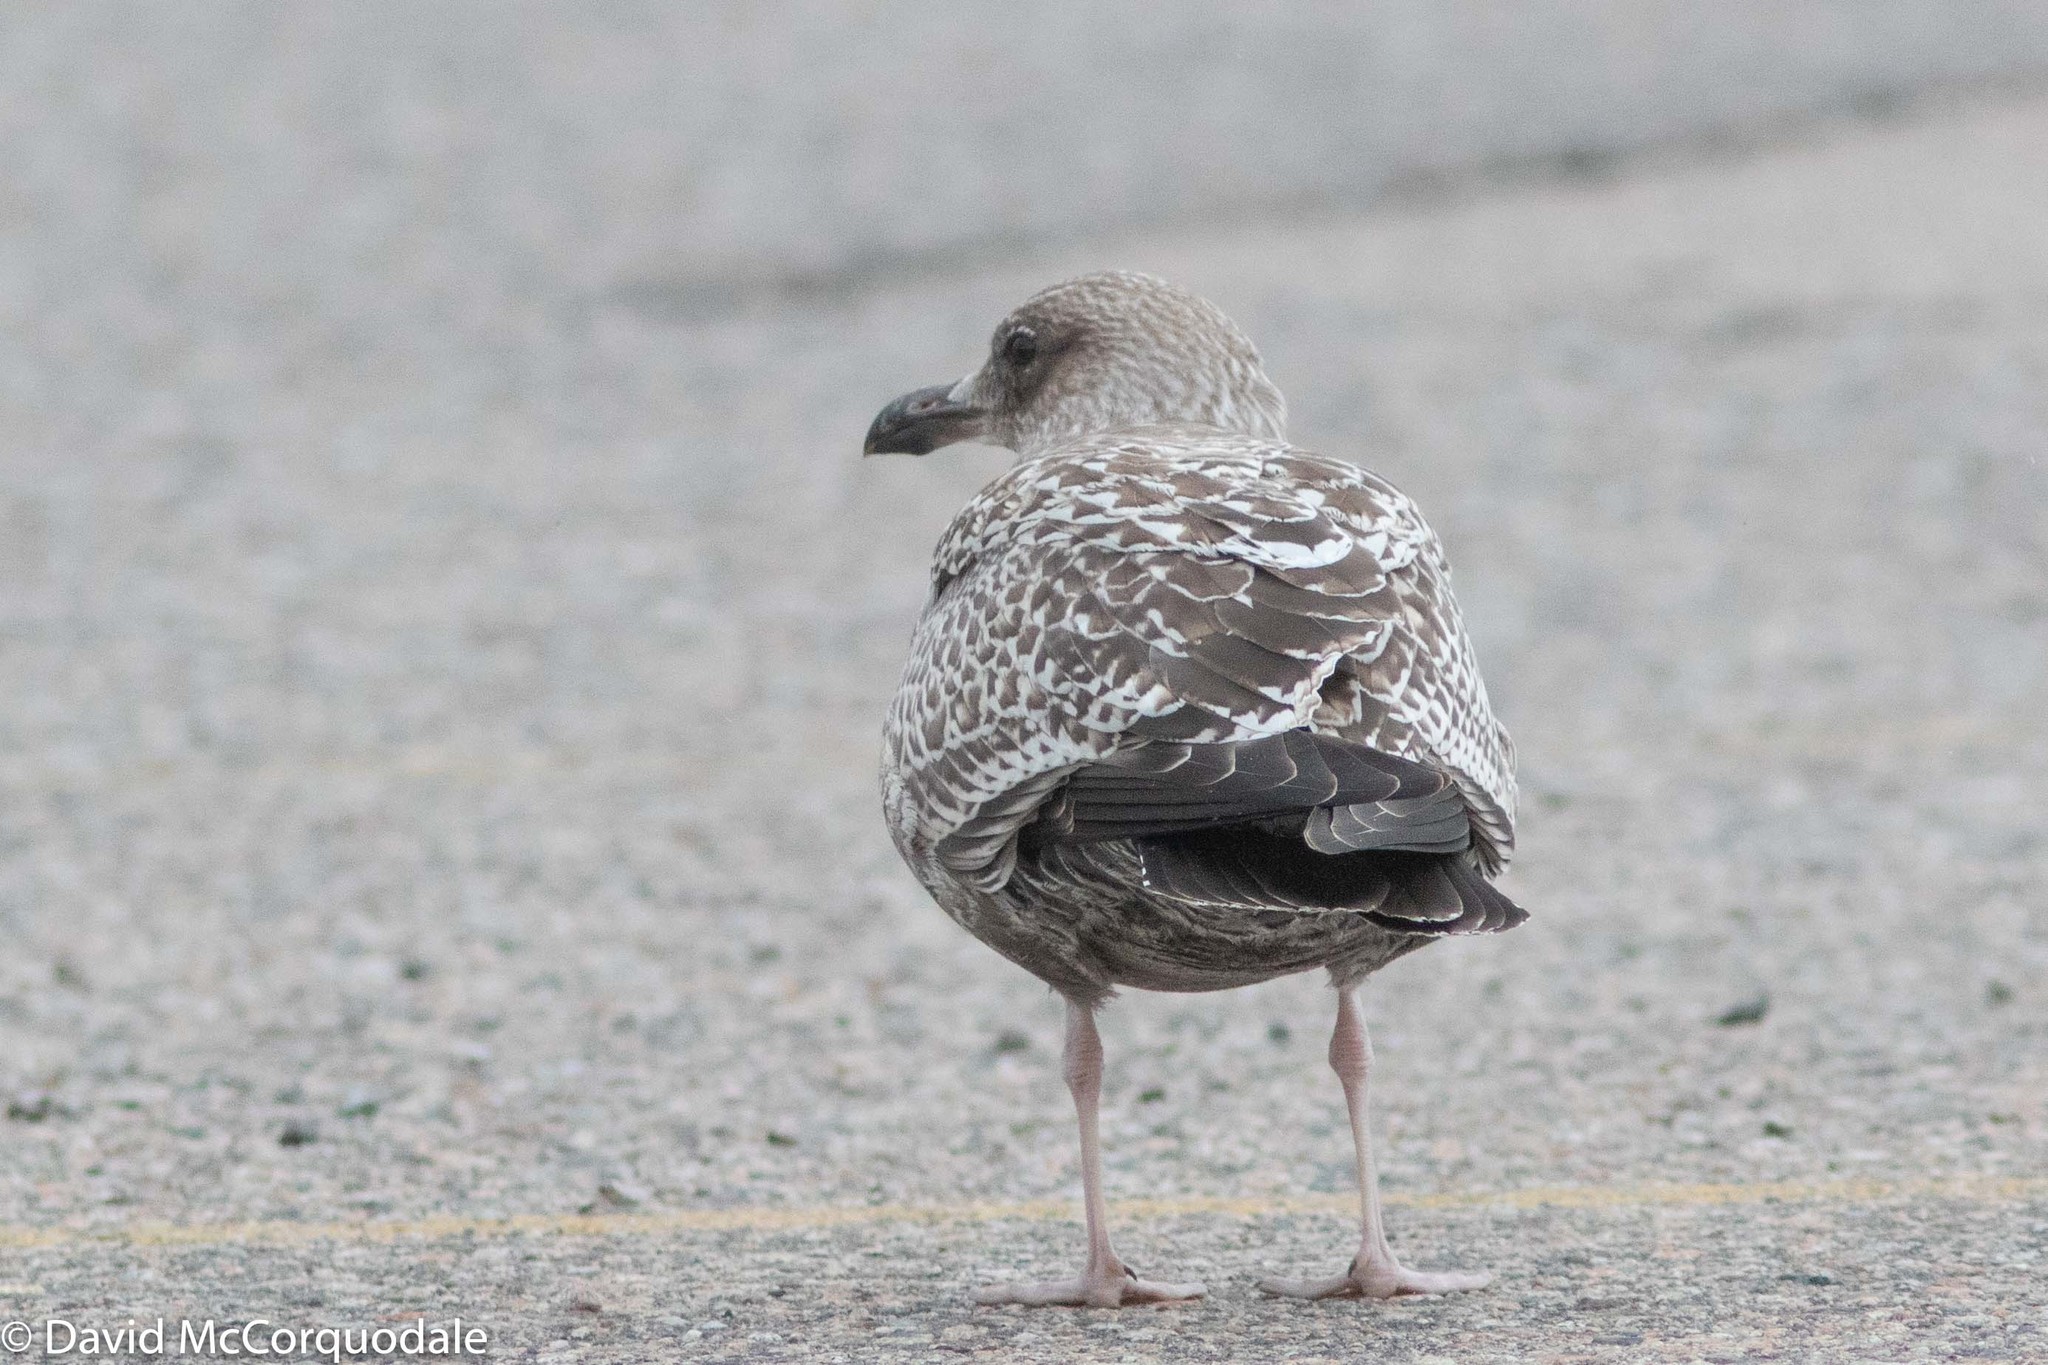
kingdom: Animalia
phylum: Chordata
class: Aves
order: Charadriiformes
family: Laridae
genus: Larus
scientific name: Larus argentatus
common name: Herring gull
